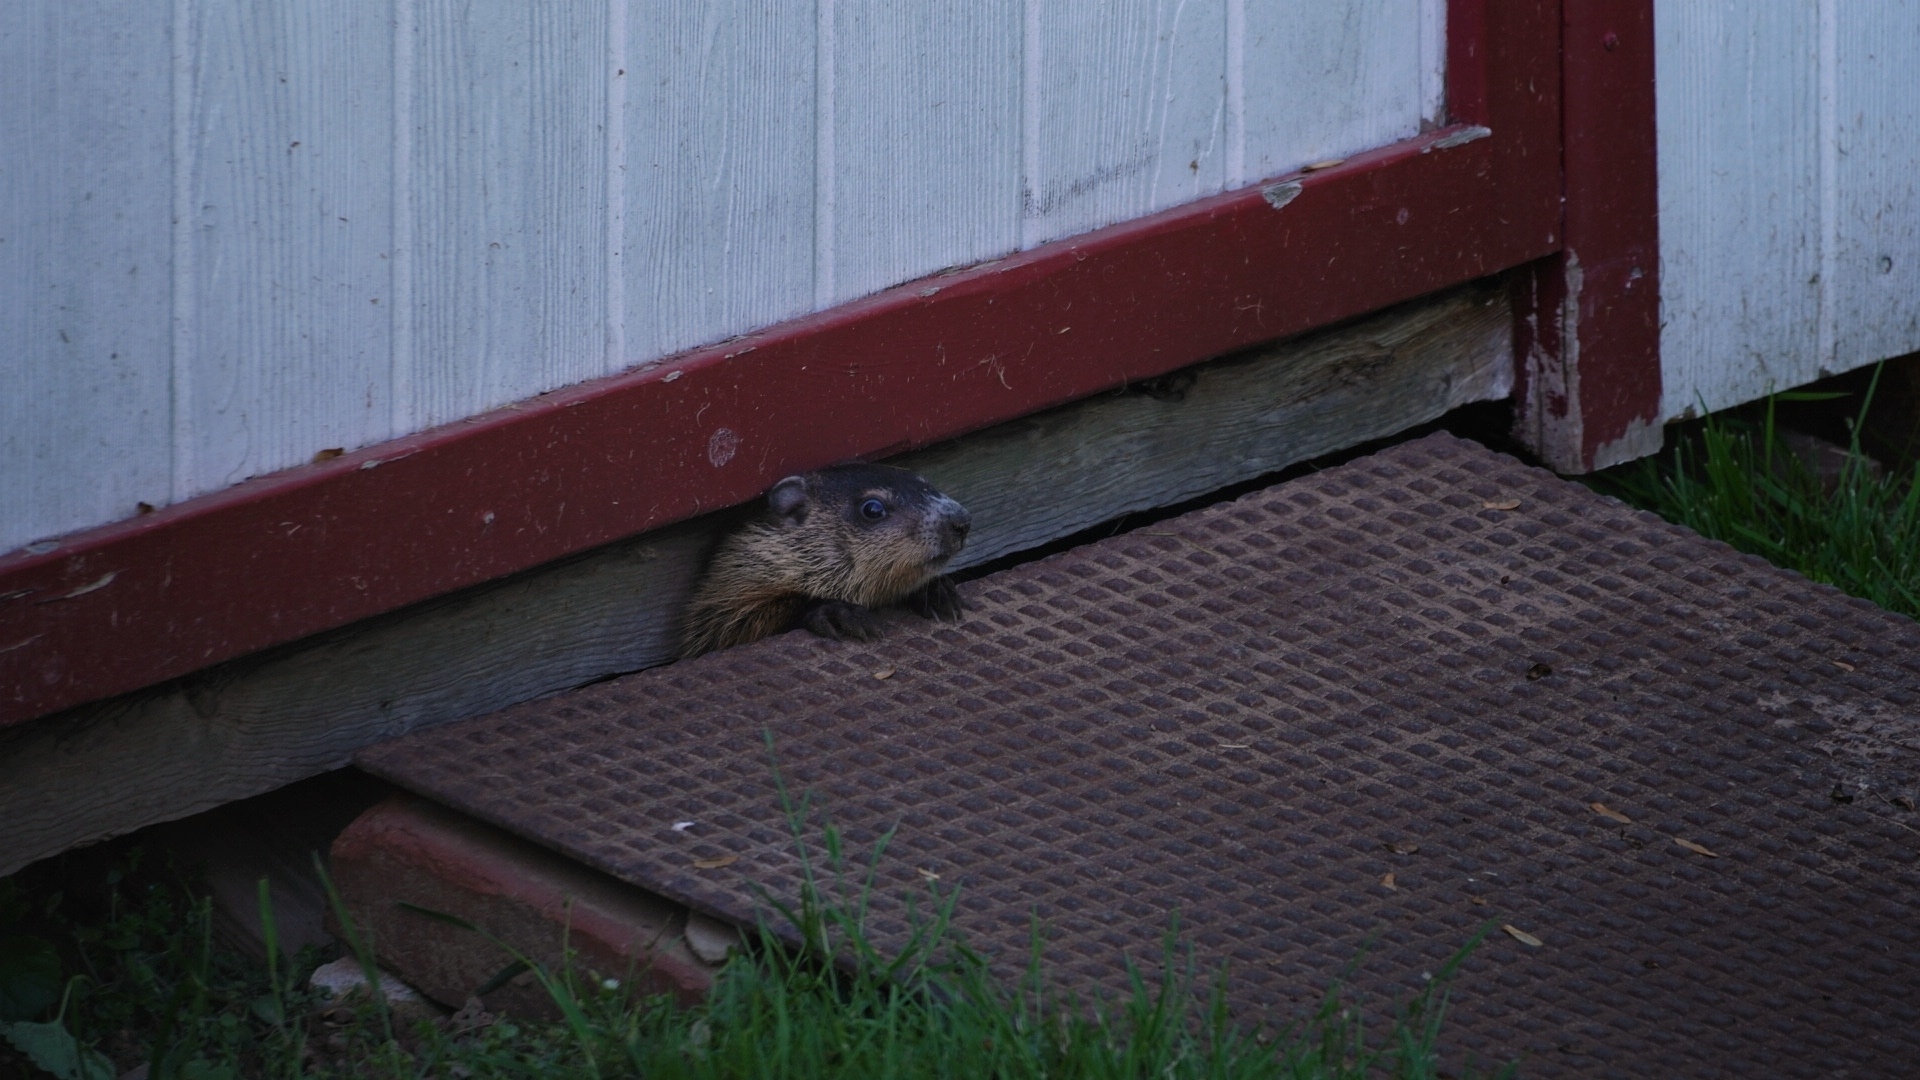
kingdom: Animalia
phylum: Chordata
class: Mammalia
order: Rodentia
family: Sciuridae
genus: Marmota
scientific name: Marmota monax
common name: Groundhog
